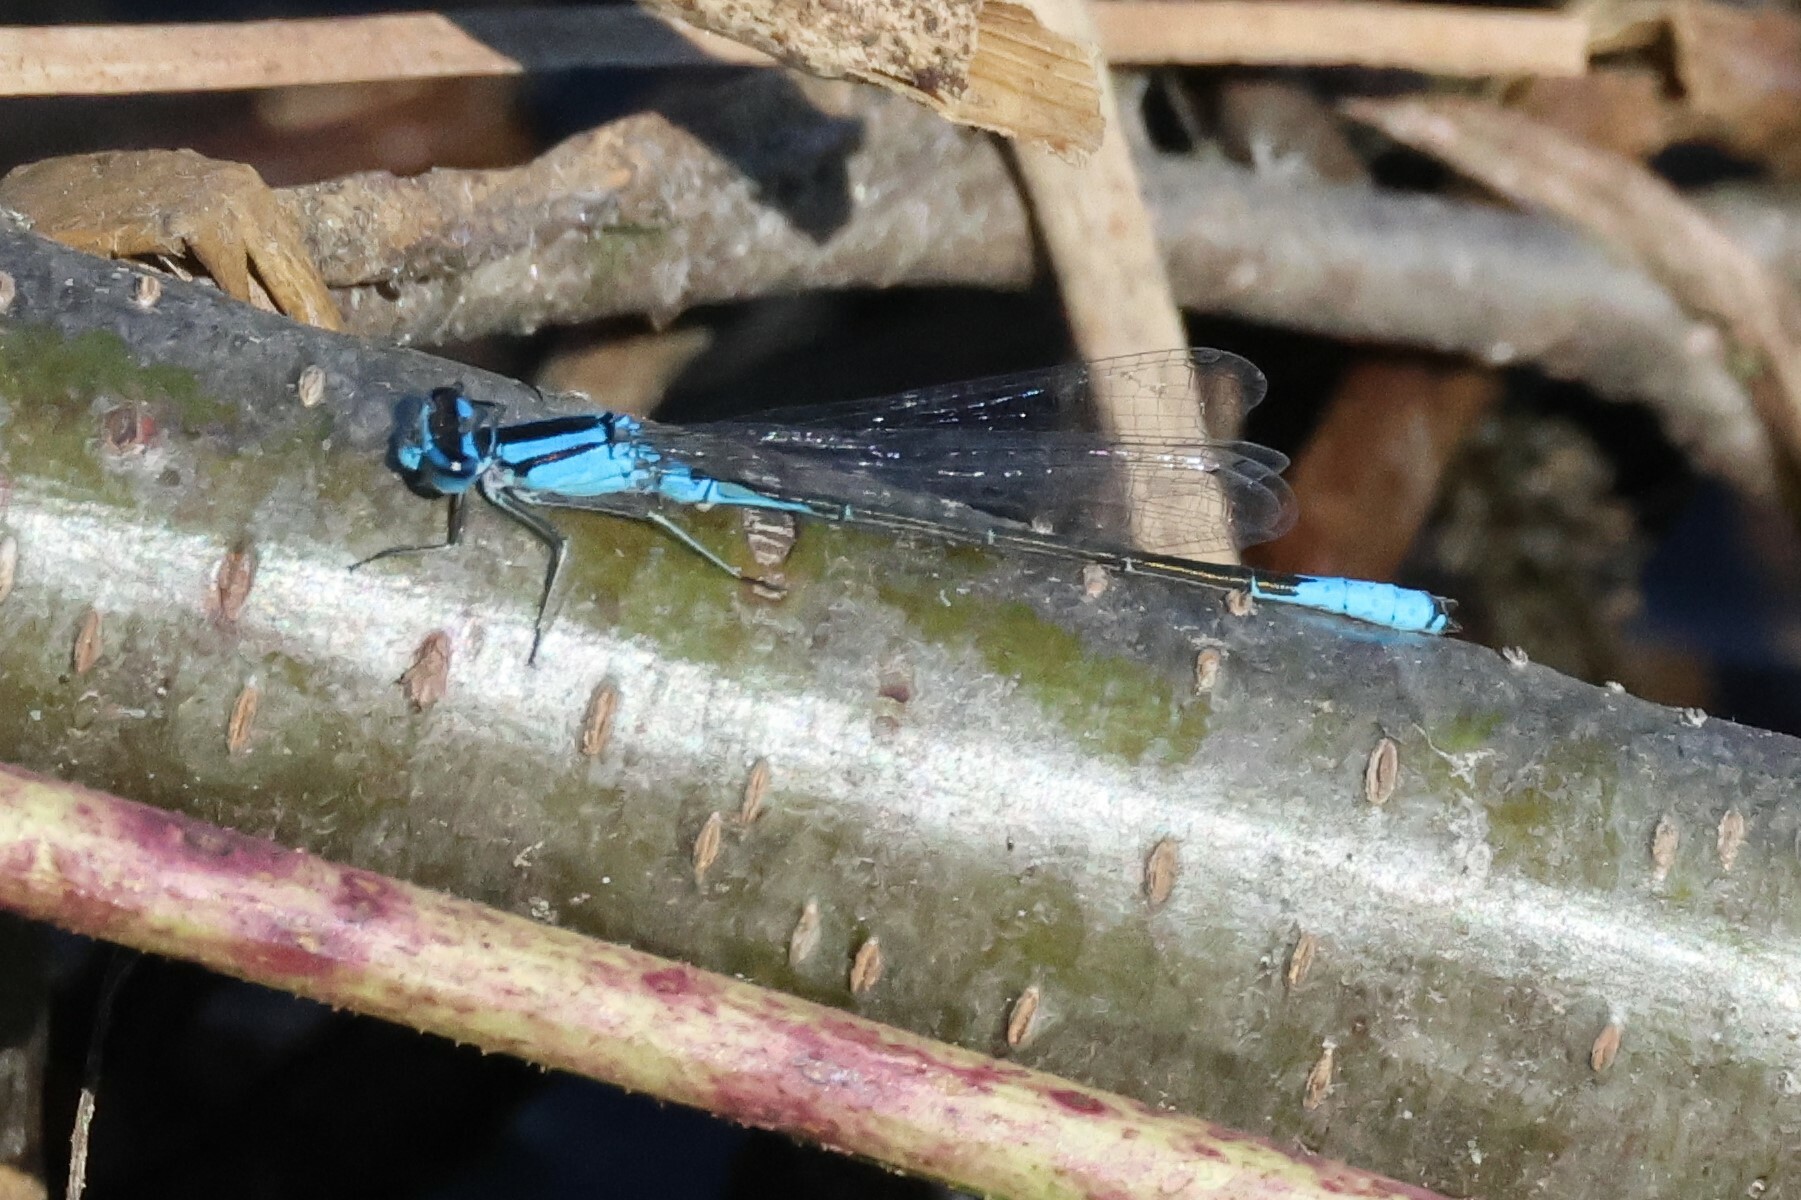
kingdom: Animalia
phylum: Arthropoda
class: Insecta
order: Odonata
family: Coenagrionidae
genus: Enallagma
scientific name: Enallagma aspersum
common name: Azure bluet
